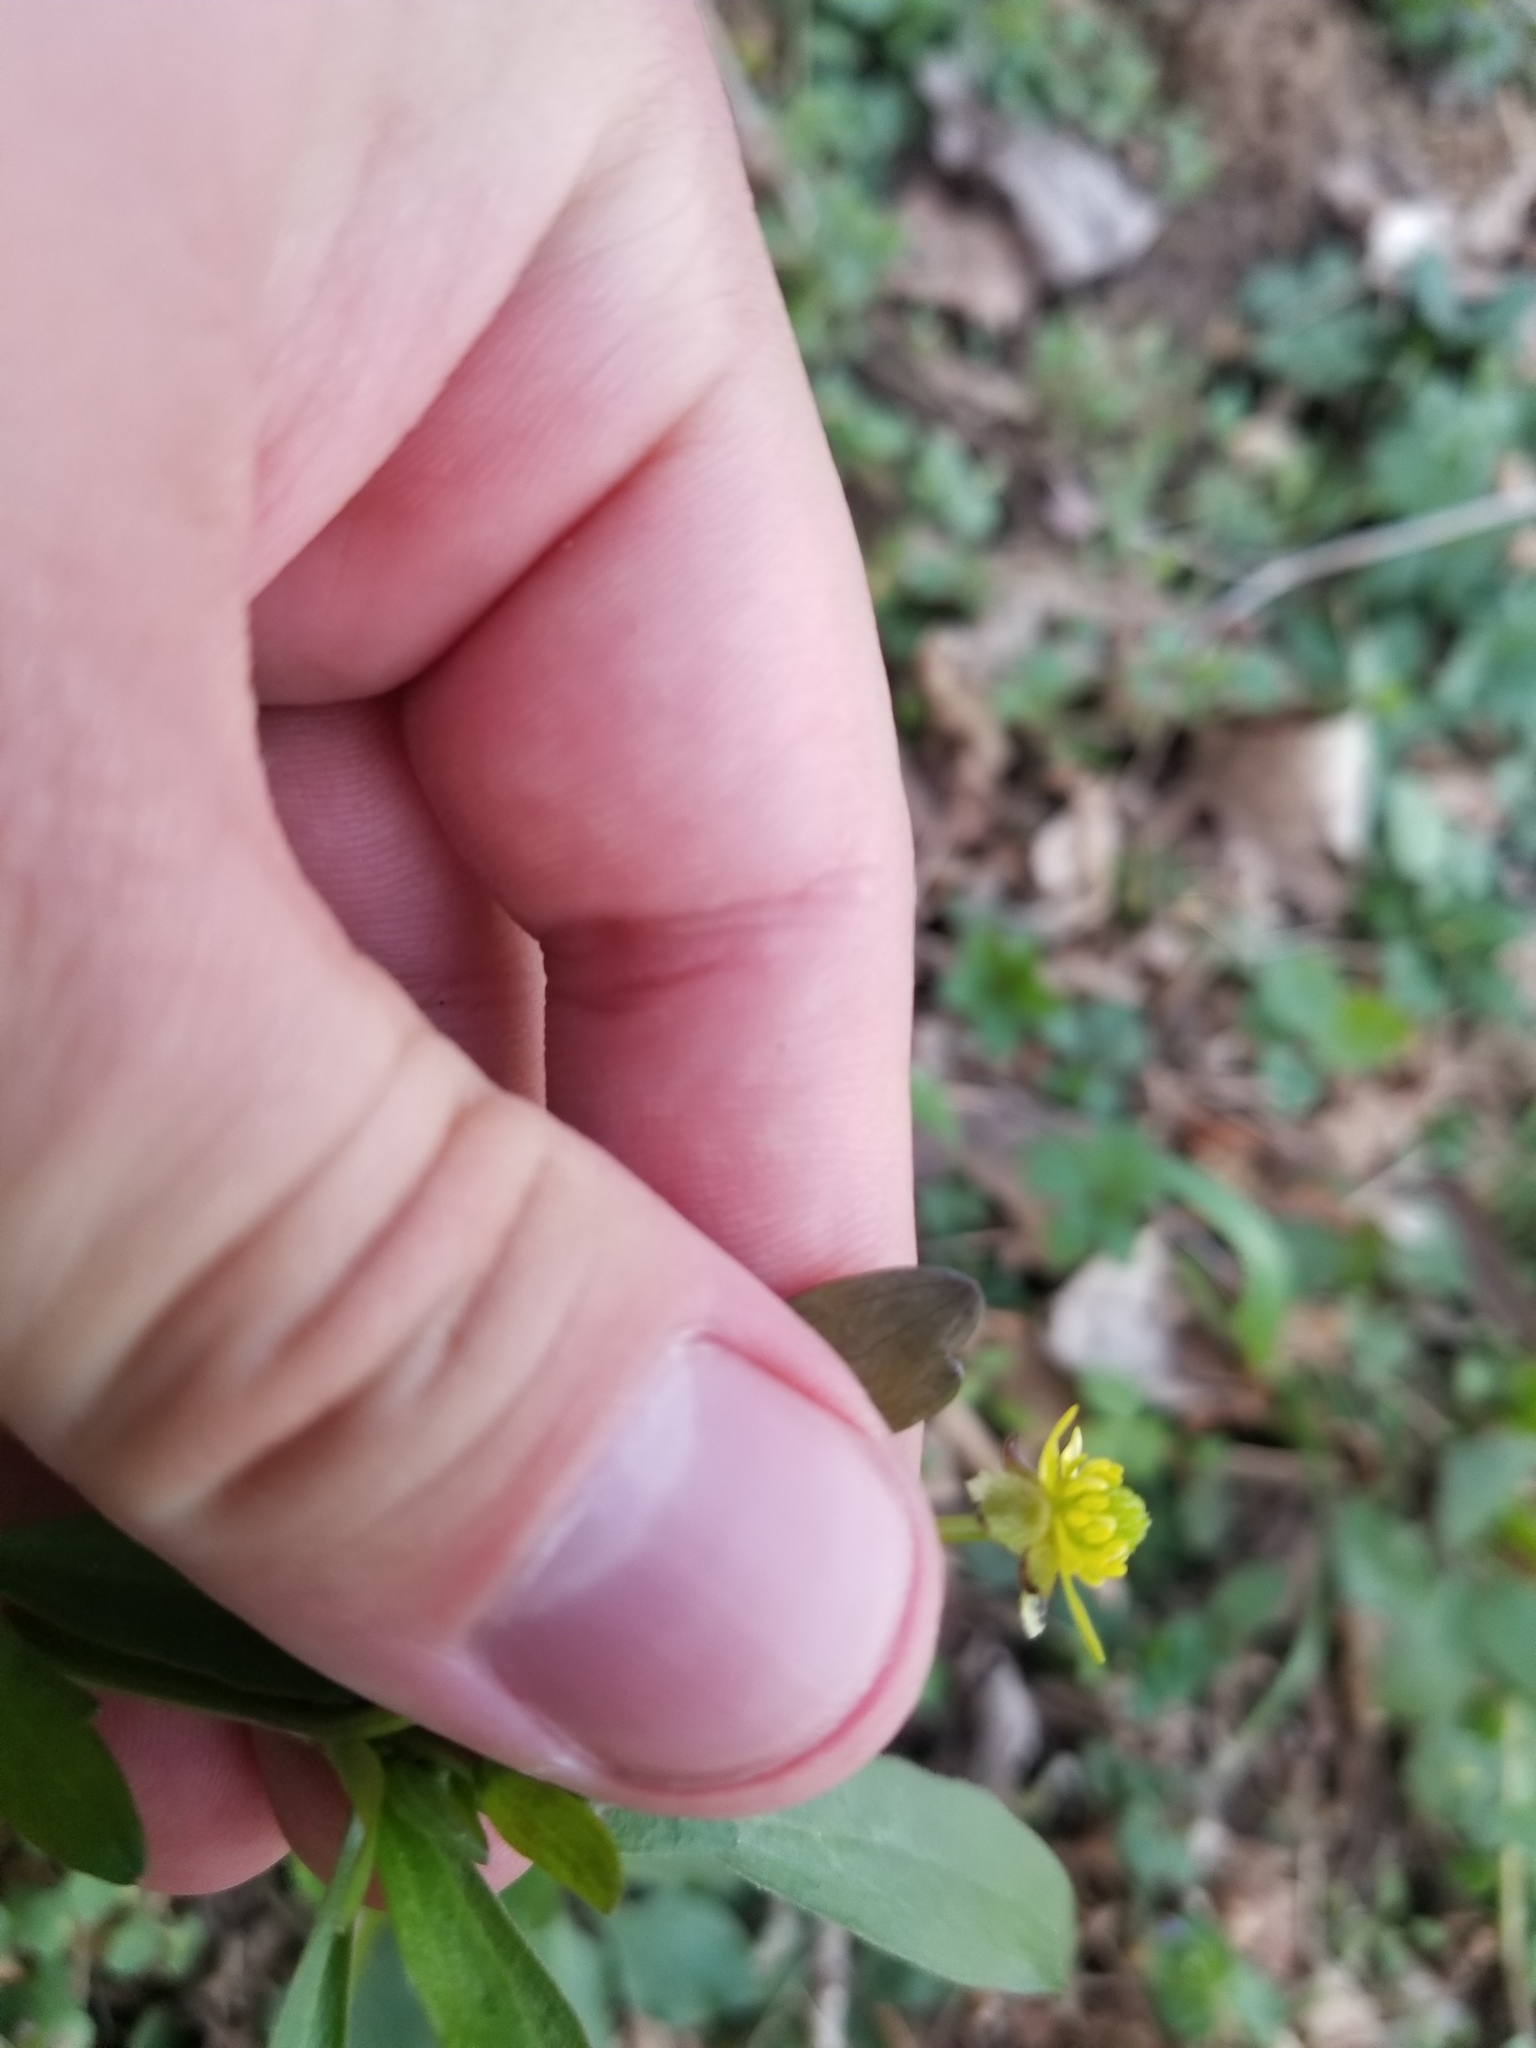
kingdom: Plantae
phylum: Tracheophyta
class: Magnoliopsida
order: Ranunculales
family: Ranunculaceae
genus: Ranunculus
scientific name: Ranunculus abortivus
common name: Early wood buttercup
